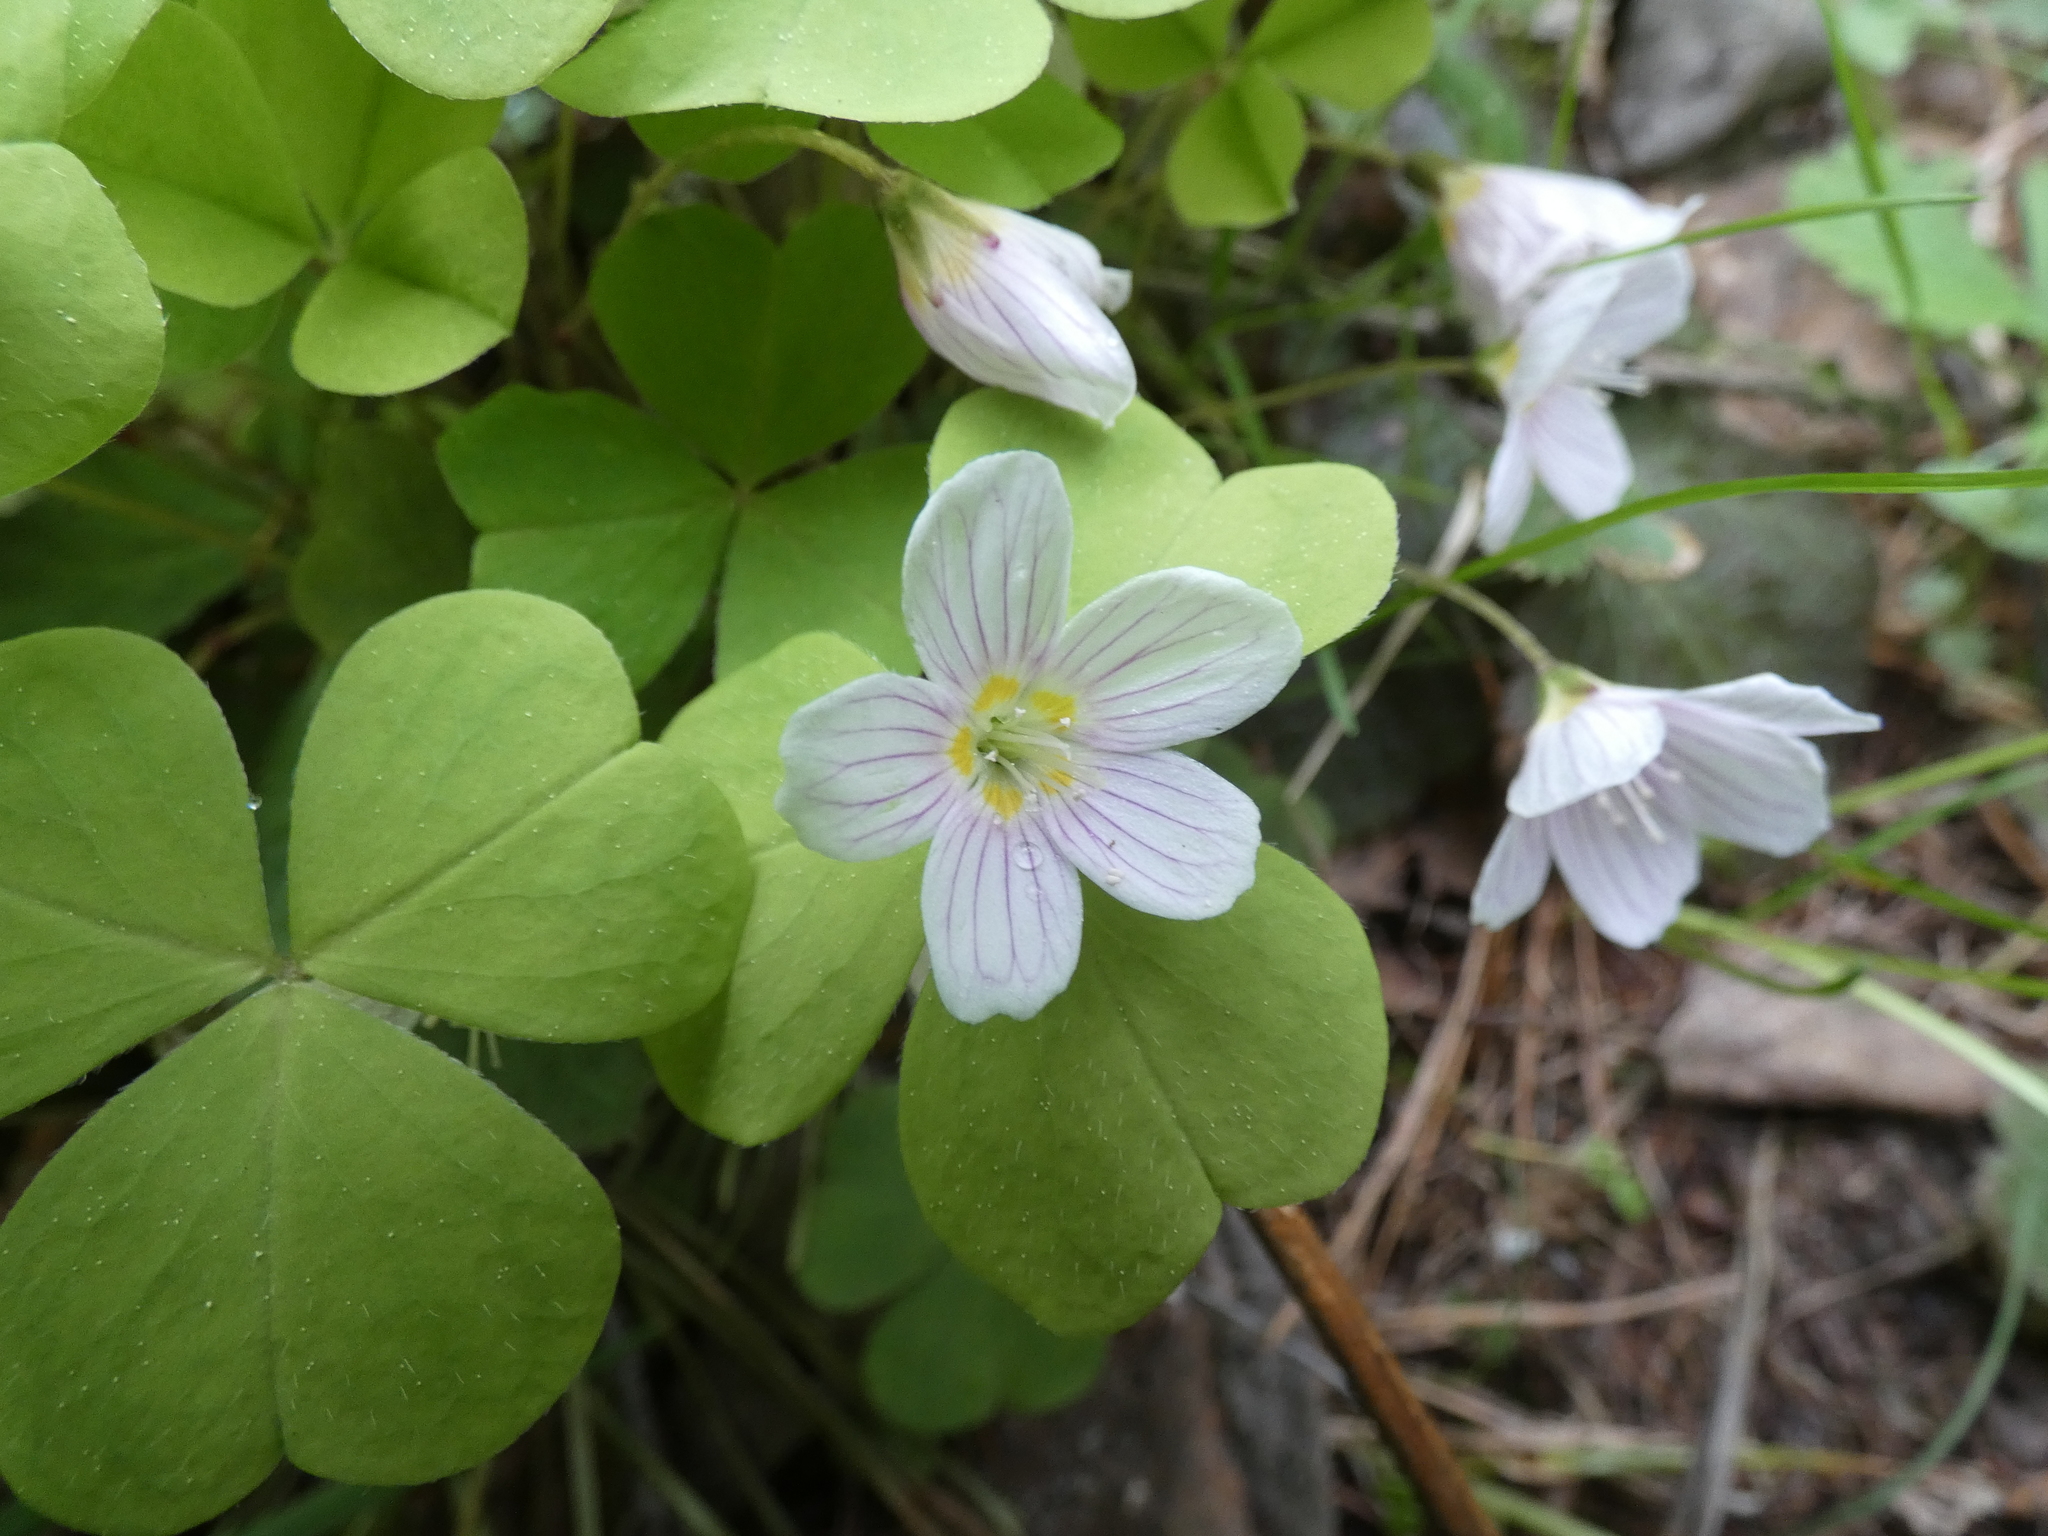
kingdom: Plantae
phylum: Tracheophyta
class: Magnoliopsida
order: Oxalidales
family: Oxalidaceae
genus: Oxalis
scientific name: Oxalis acetosella
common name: Wood-sorrel
